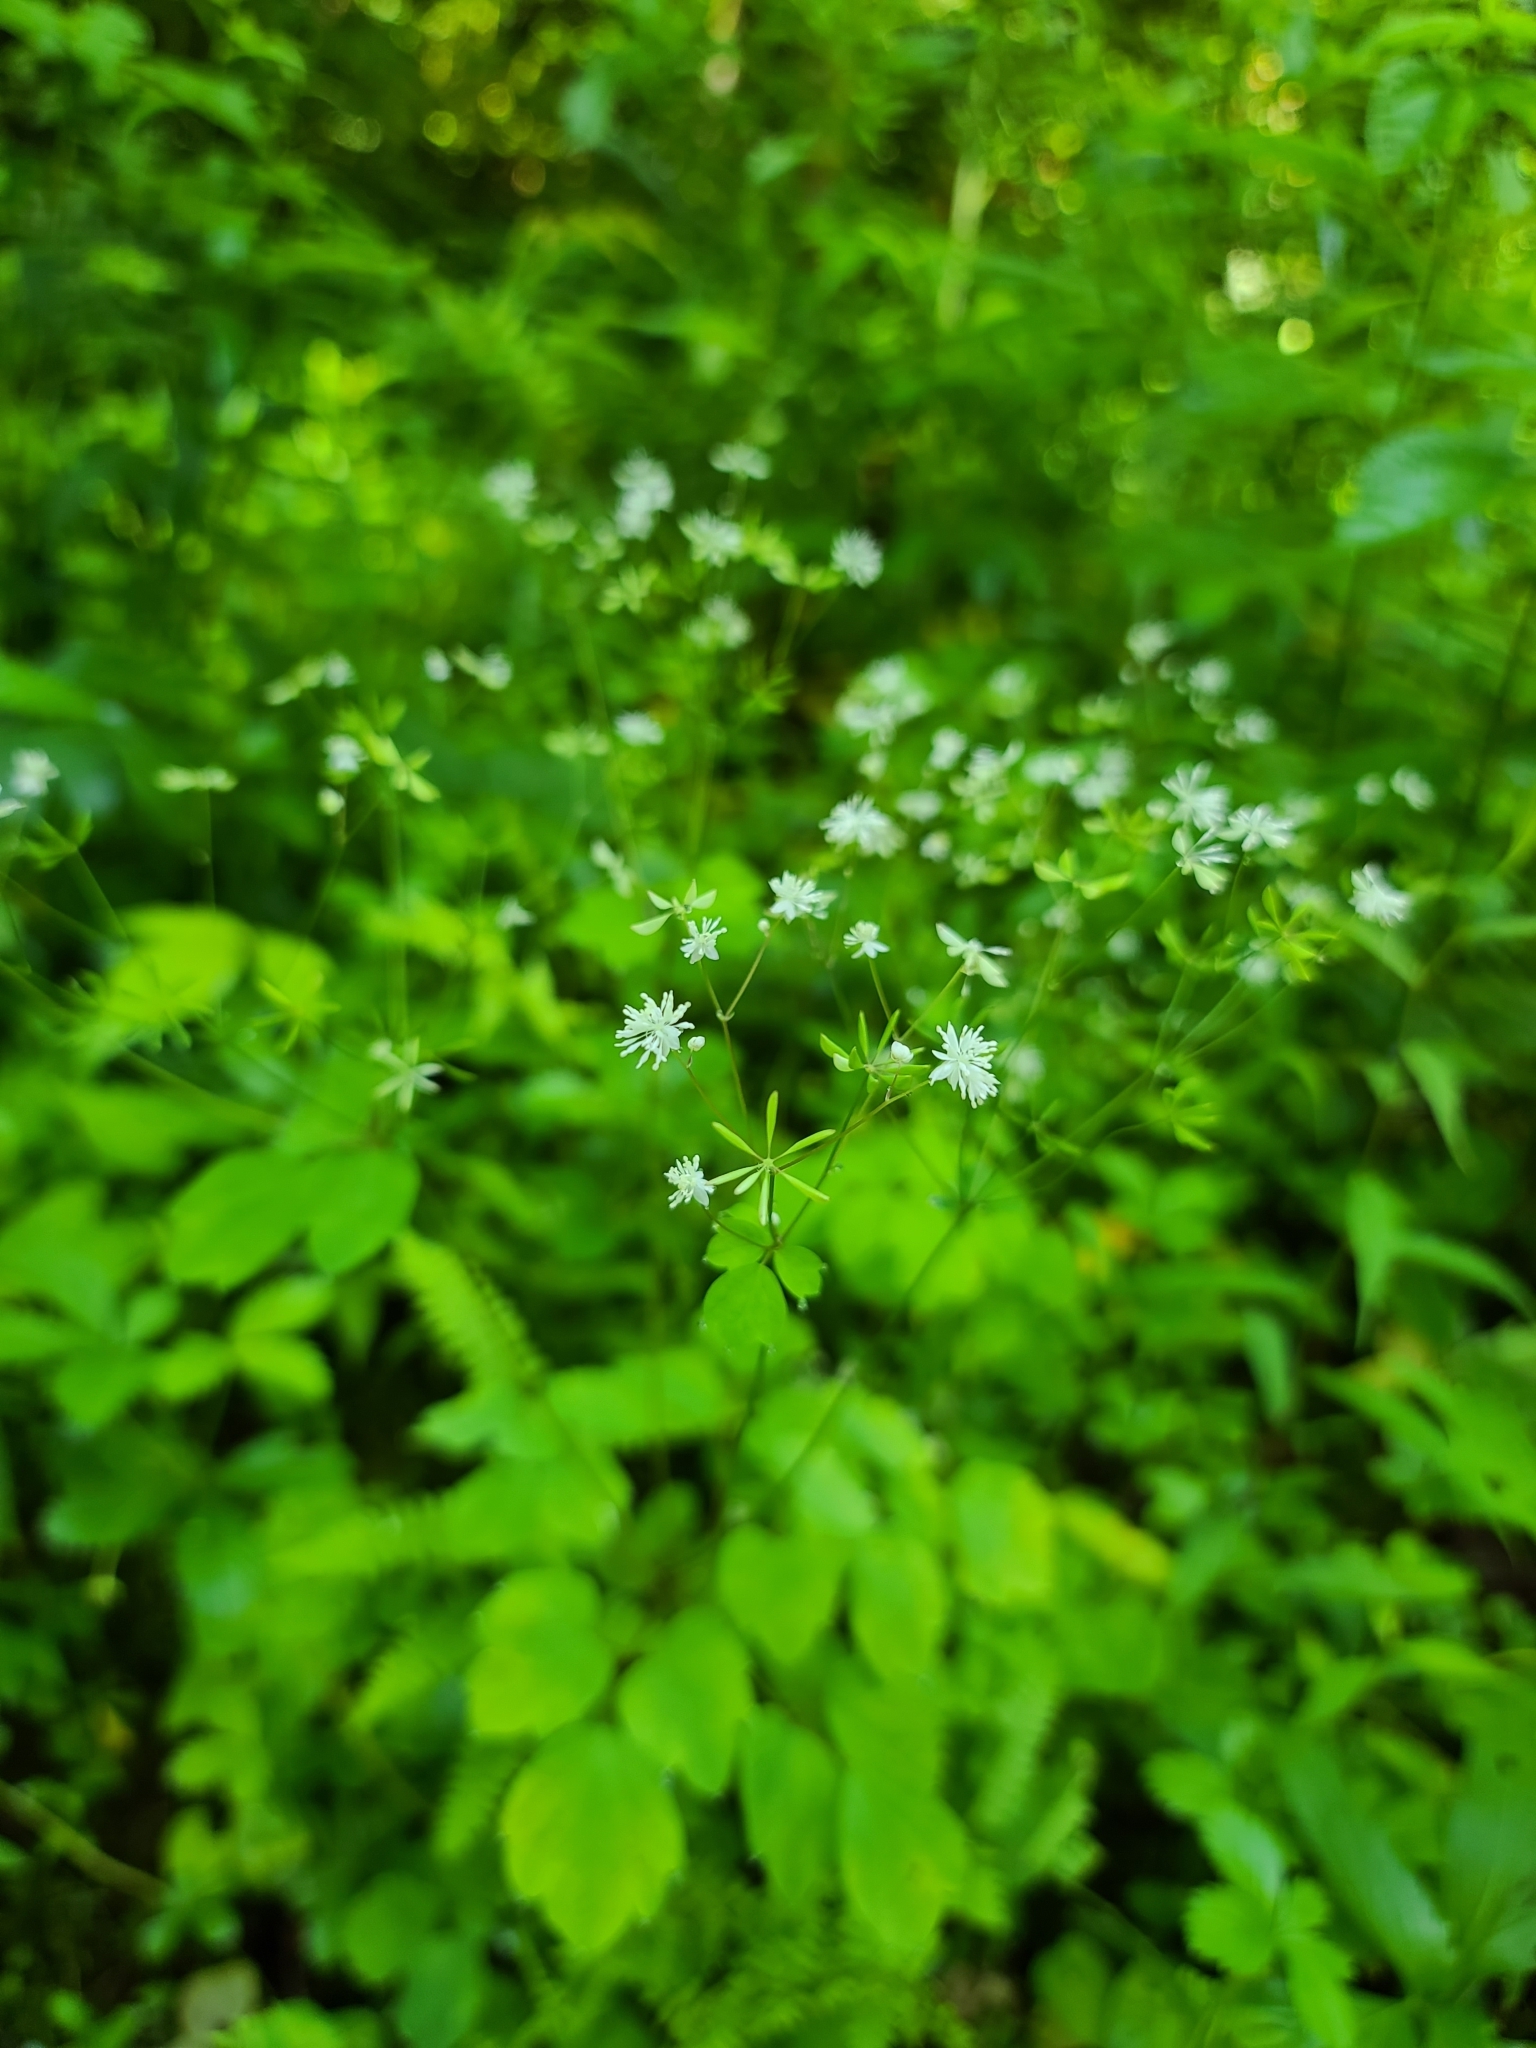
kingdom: Plantae
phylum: Tracheophyta
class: Magnoliopsida
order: Ranunculales
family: Ranunculaceae
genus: Thalictrum
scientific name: Thalictrum clavatum
